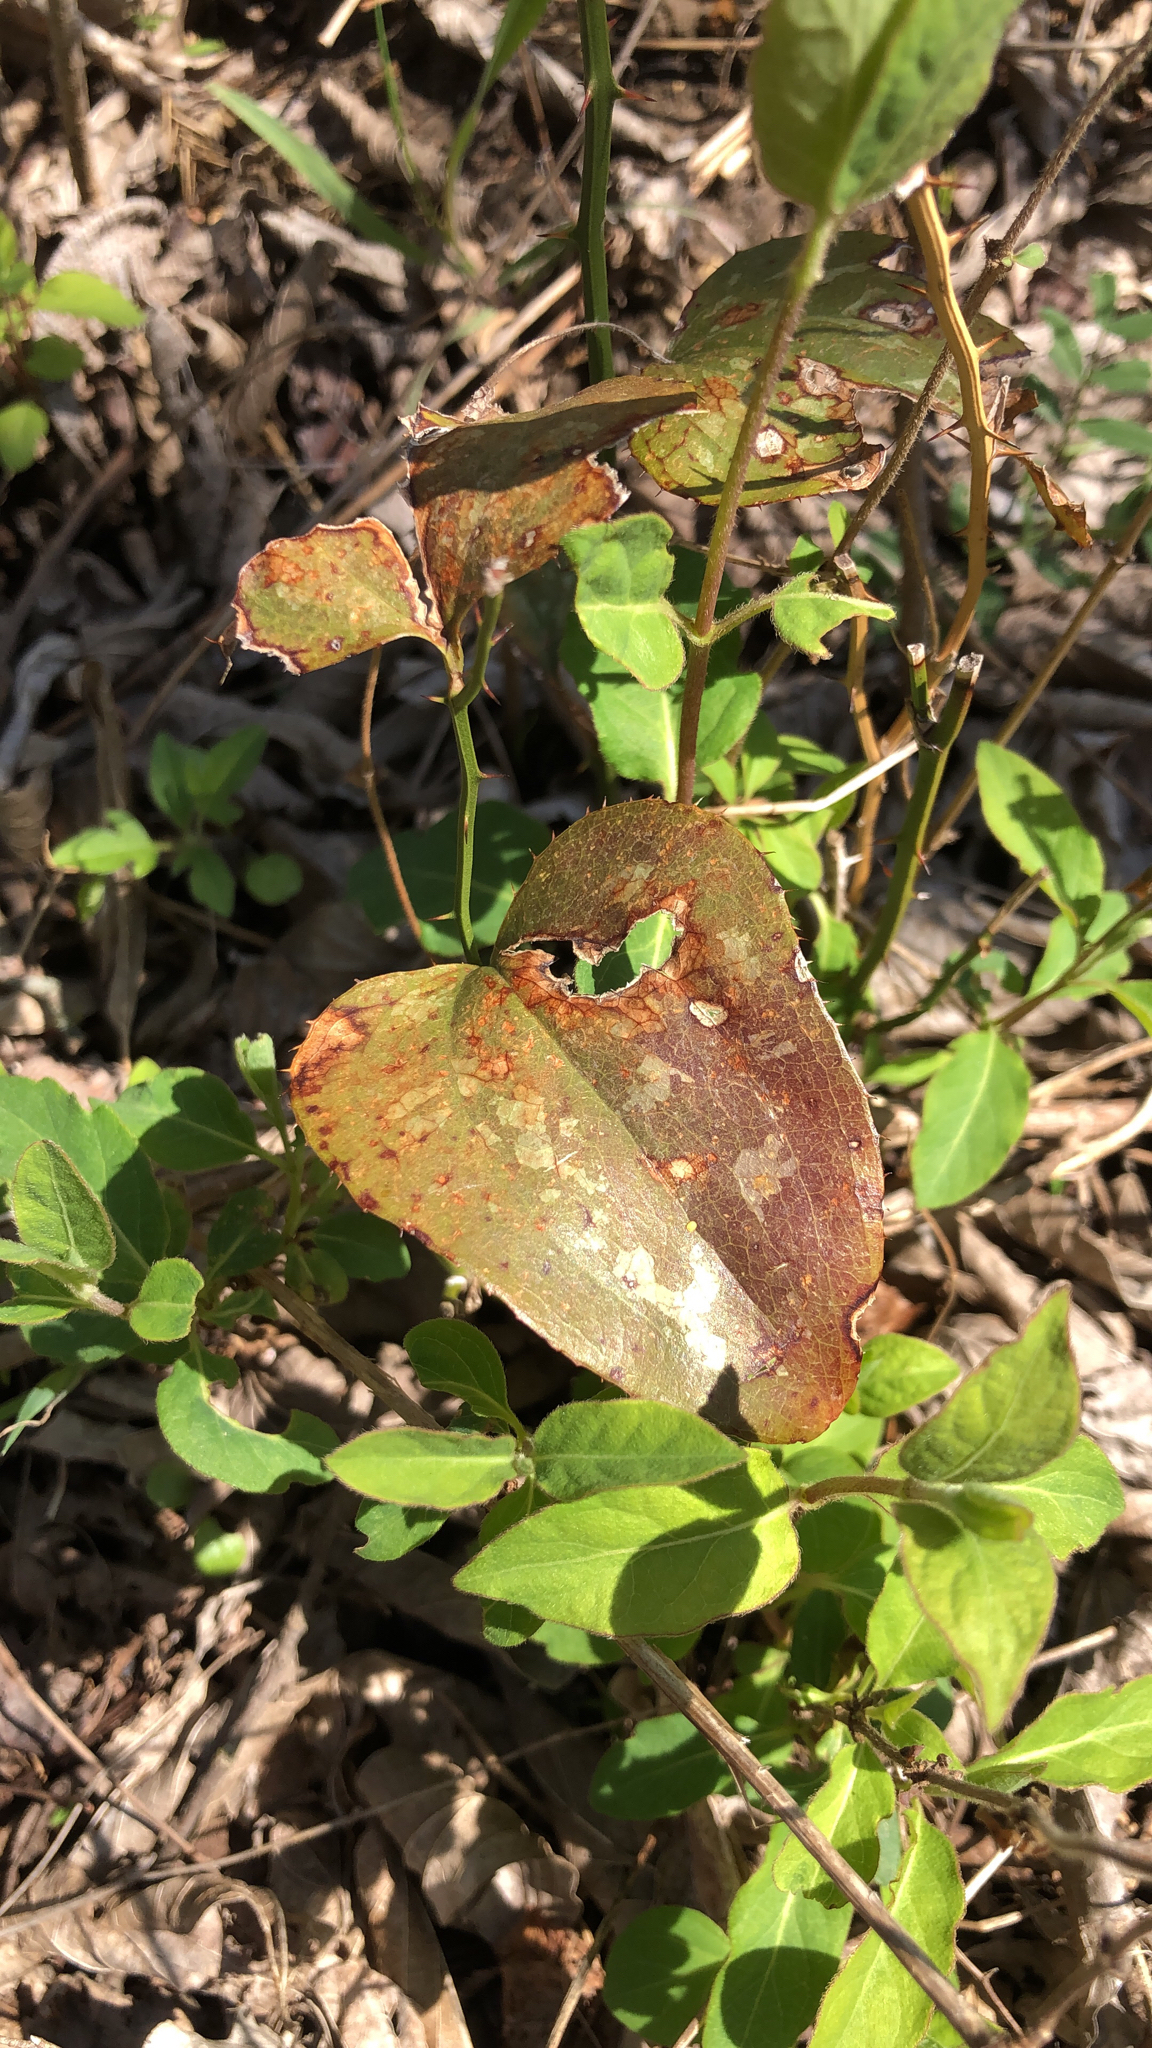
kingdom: Plantae
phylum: Tracheophyta
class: Liliopsida
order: Liliales
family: Smilacaceae
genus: Smilax
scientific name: Smilax bona-nox
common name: Catbrier
